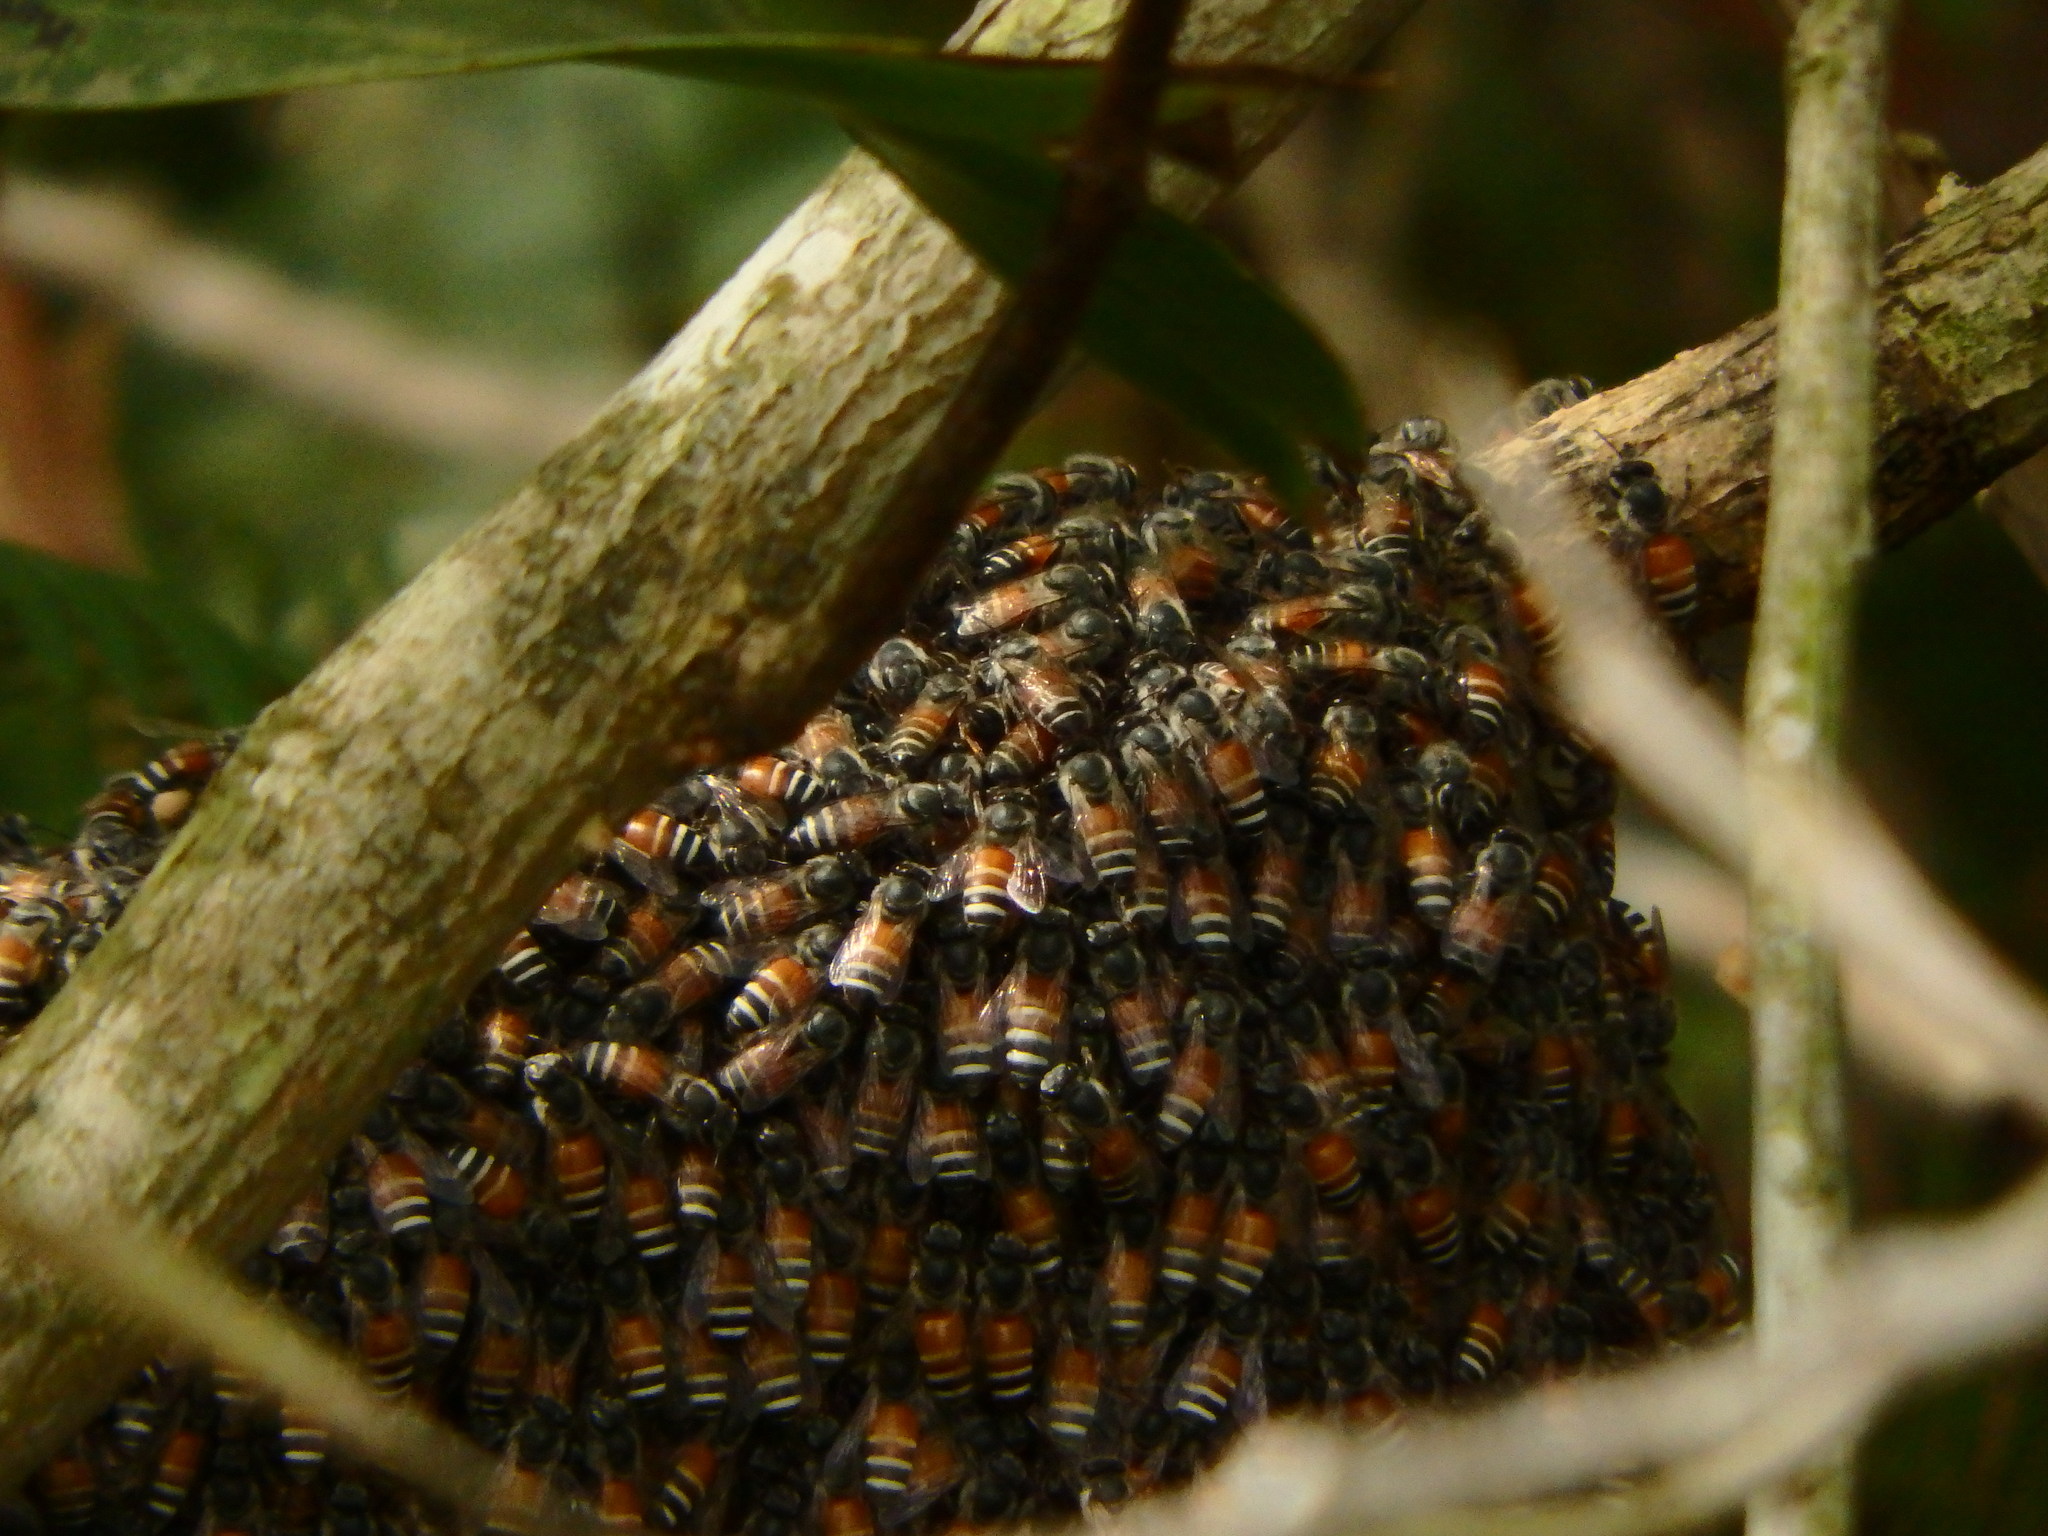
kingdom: Animalia
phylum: Arthropoda
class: Insecta
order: Hymenoptera
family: Apidae
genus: Apis
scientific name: Apis florea
